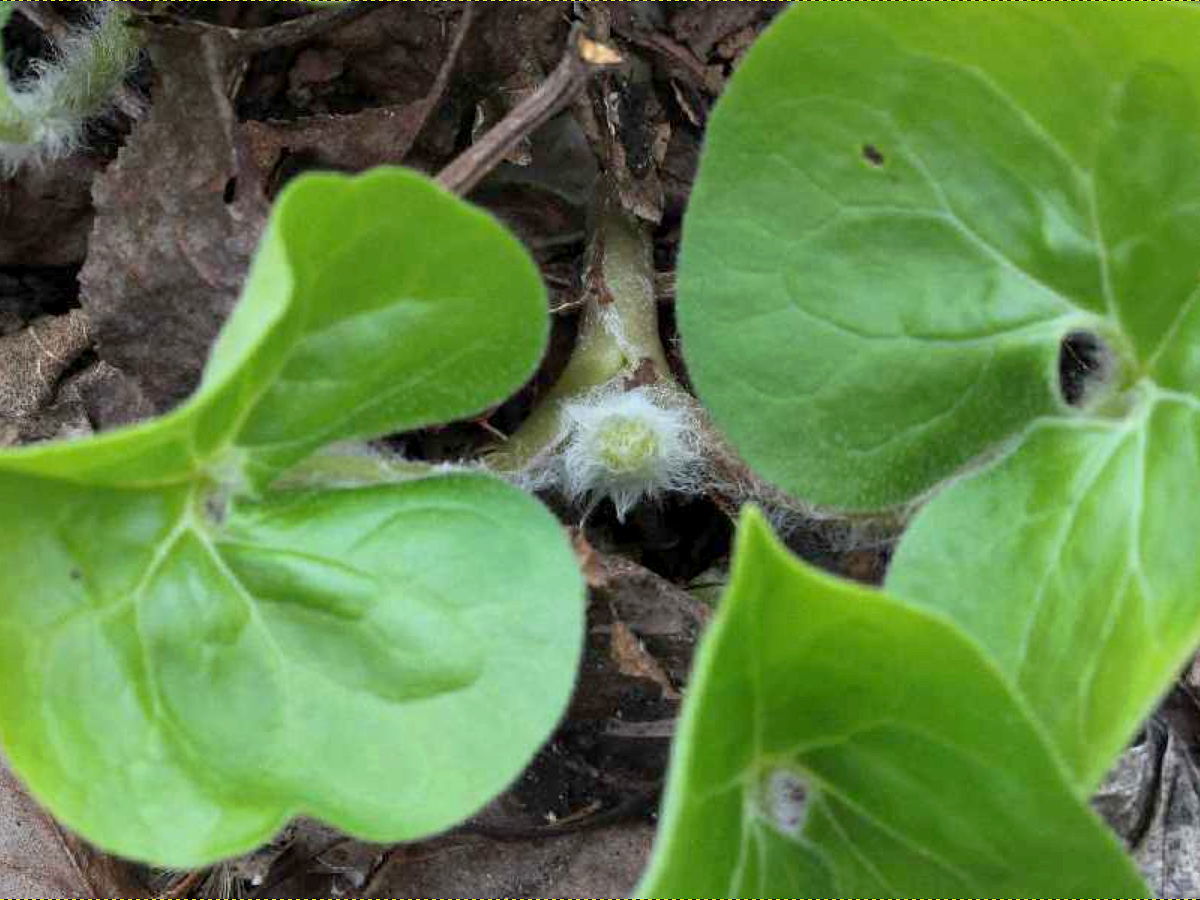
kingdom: Plantae
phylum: Tracheophyta
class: Magnoliopsida
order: Piperales
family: Aristolochiaceae
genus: Asarum
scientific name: Asarum canadense
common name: Wild ginger
